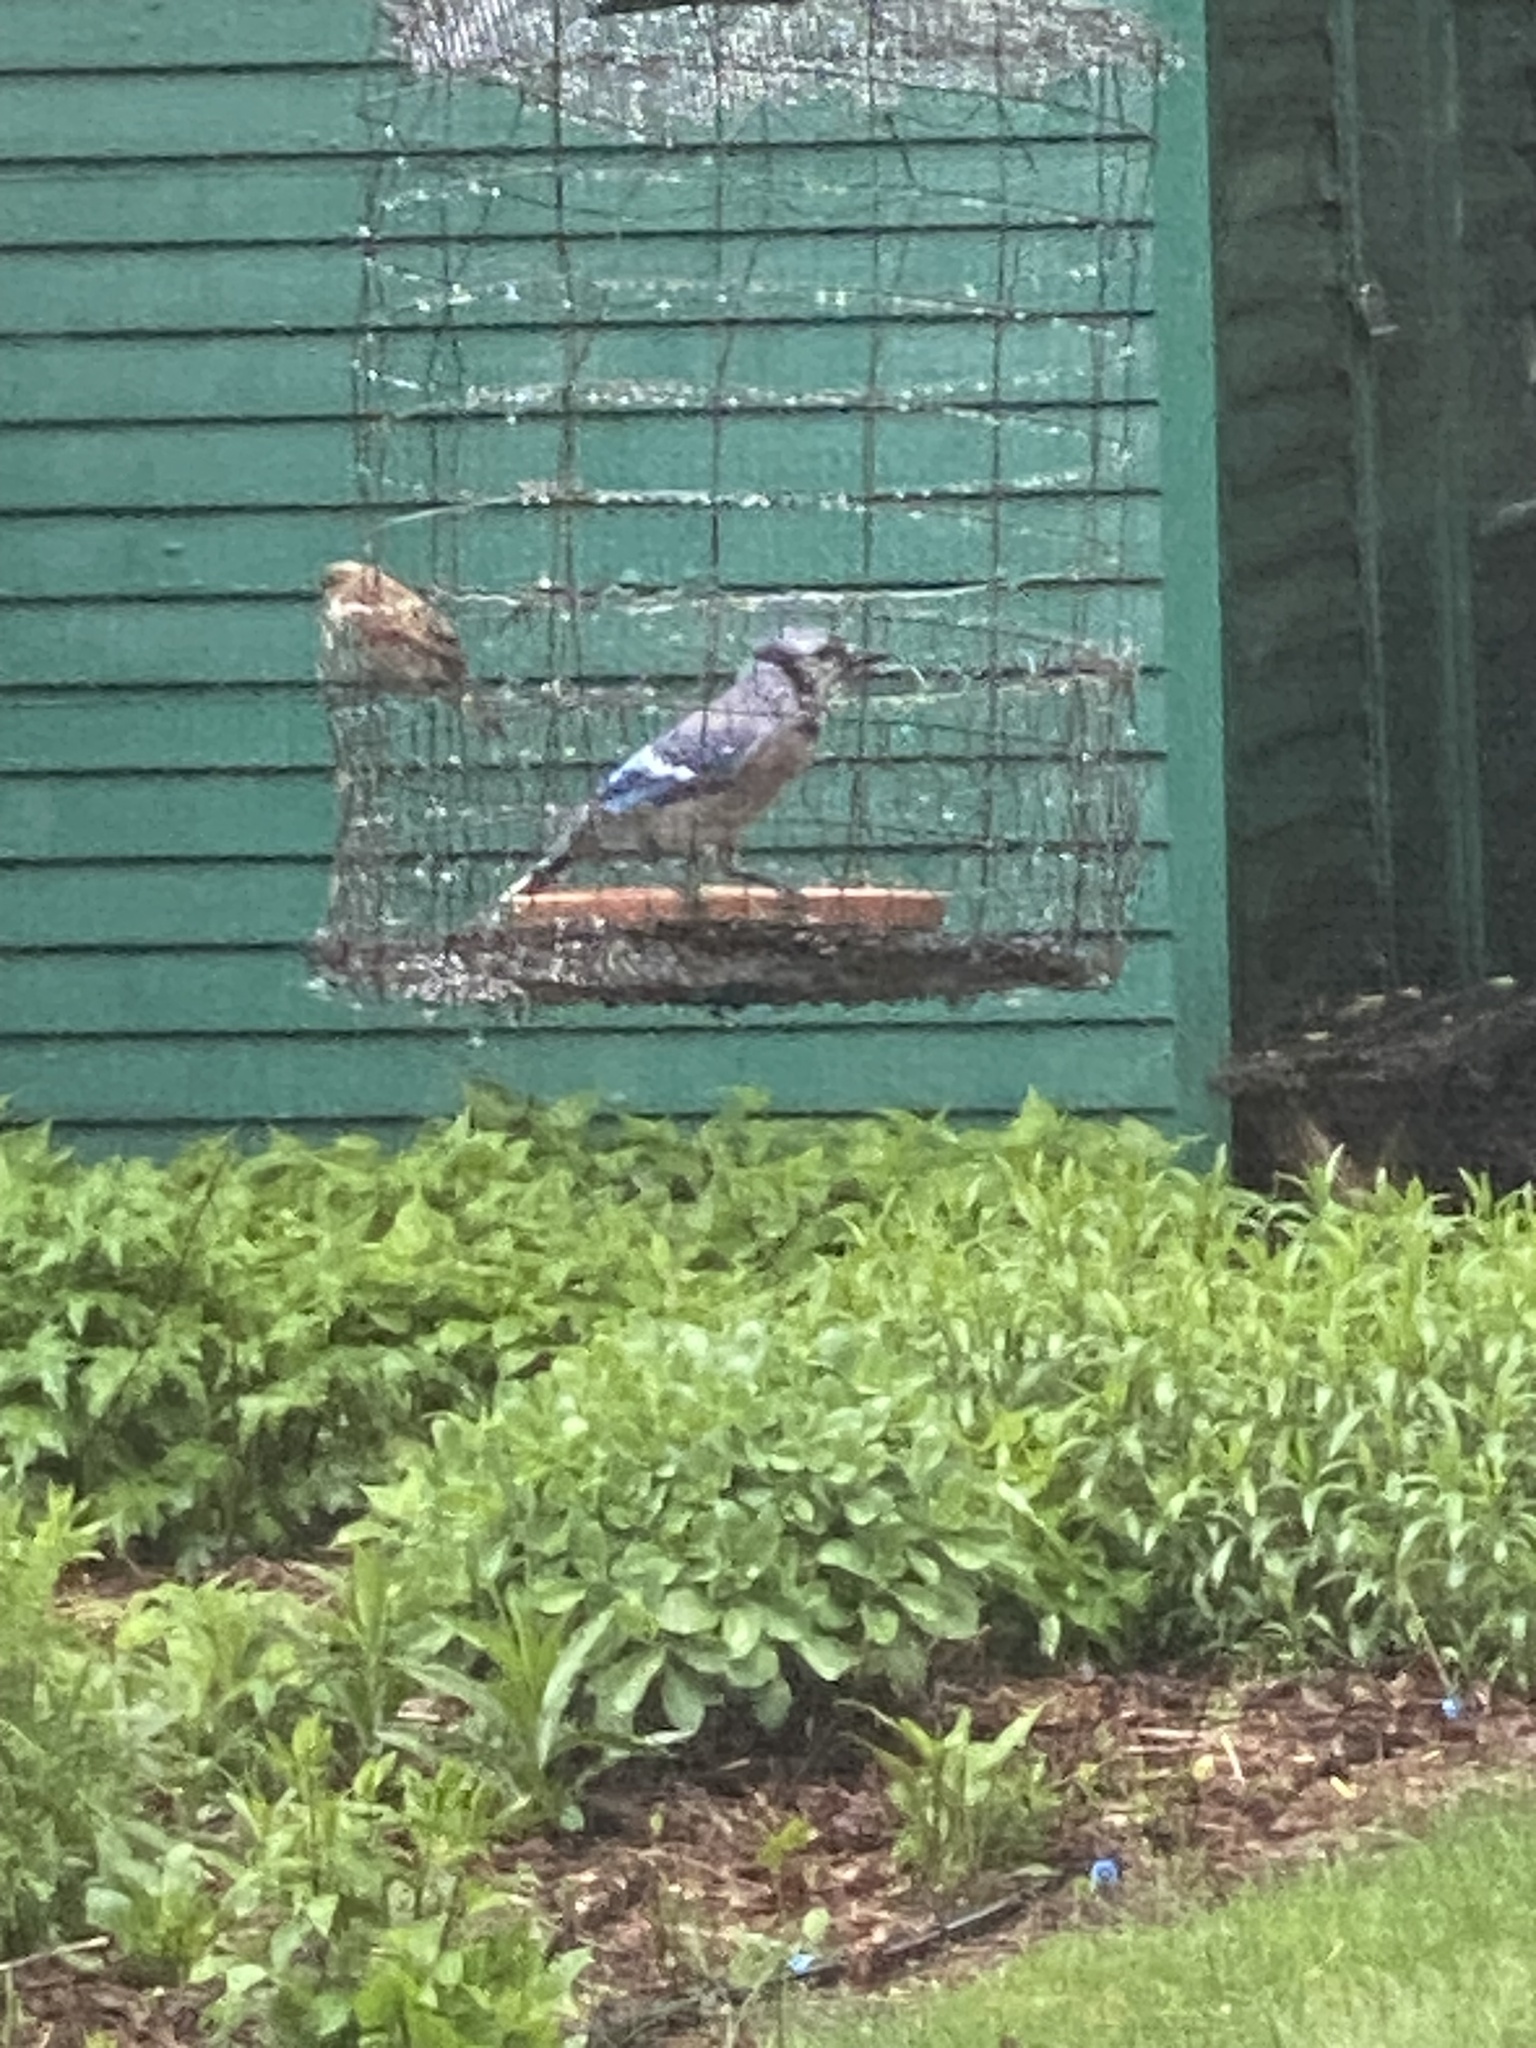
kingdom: Animalia
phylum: Chordata
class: Aves
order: Passeriformes
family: Corvidae
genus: Cyanocitta
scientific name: Cyanocitta cristata
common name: Blue jay
